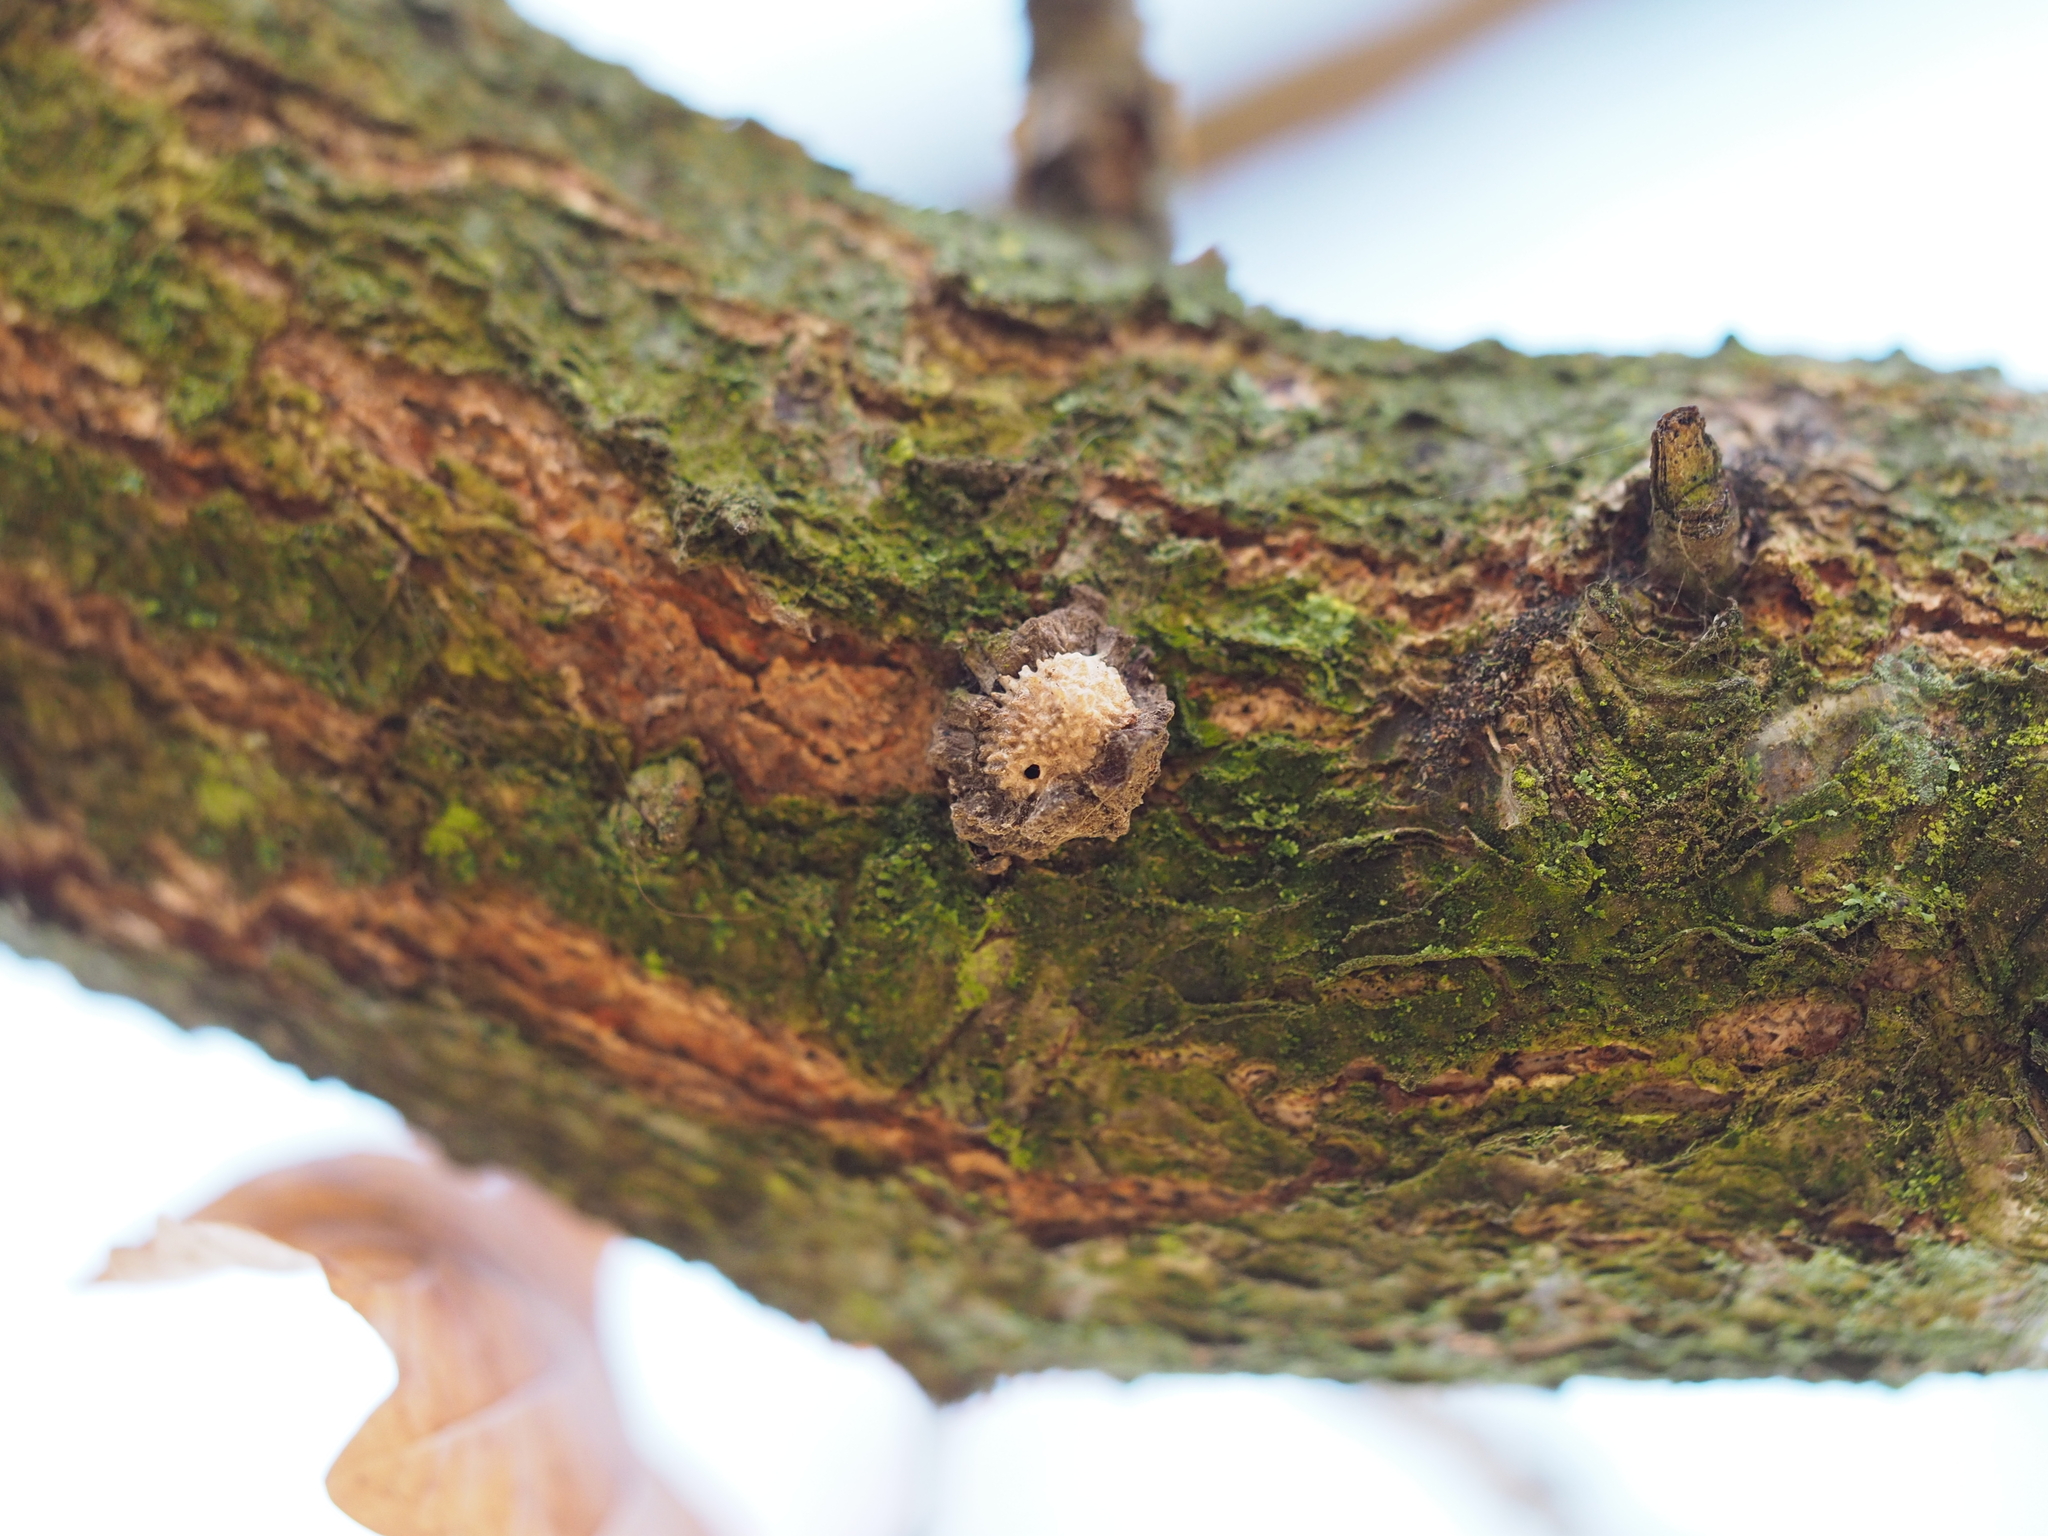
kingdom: Animalia
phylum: Arthropoda
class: Insecta
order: Hymenoptera
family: Cynipidae
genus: Andricus
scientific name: Andricus truncicola
